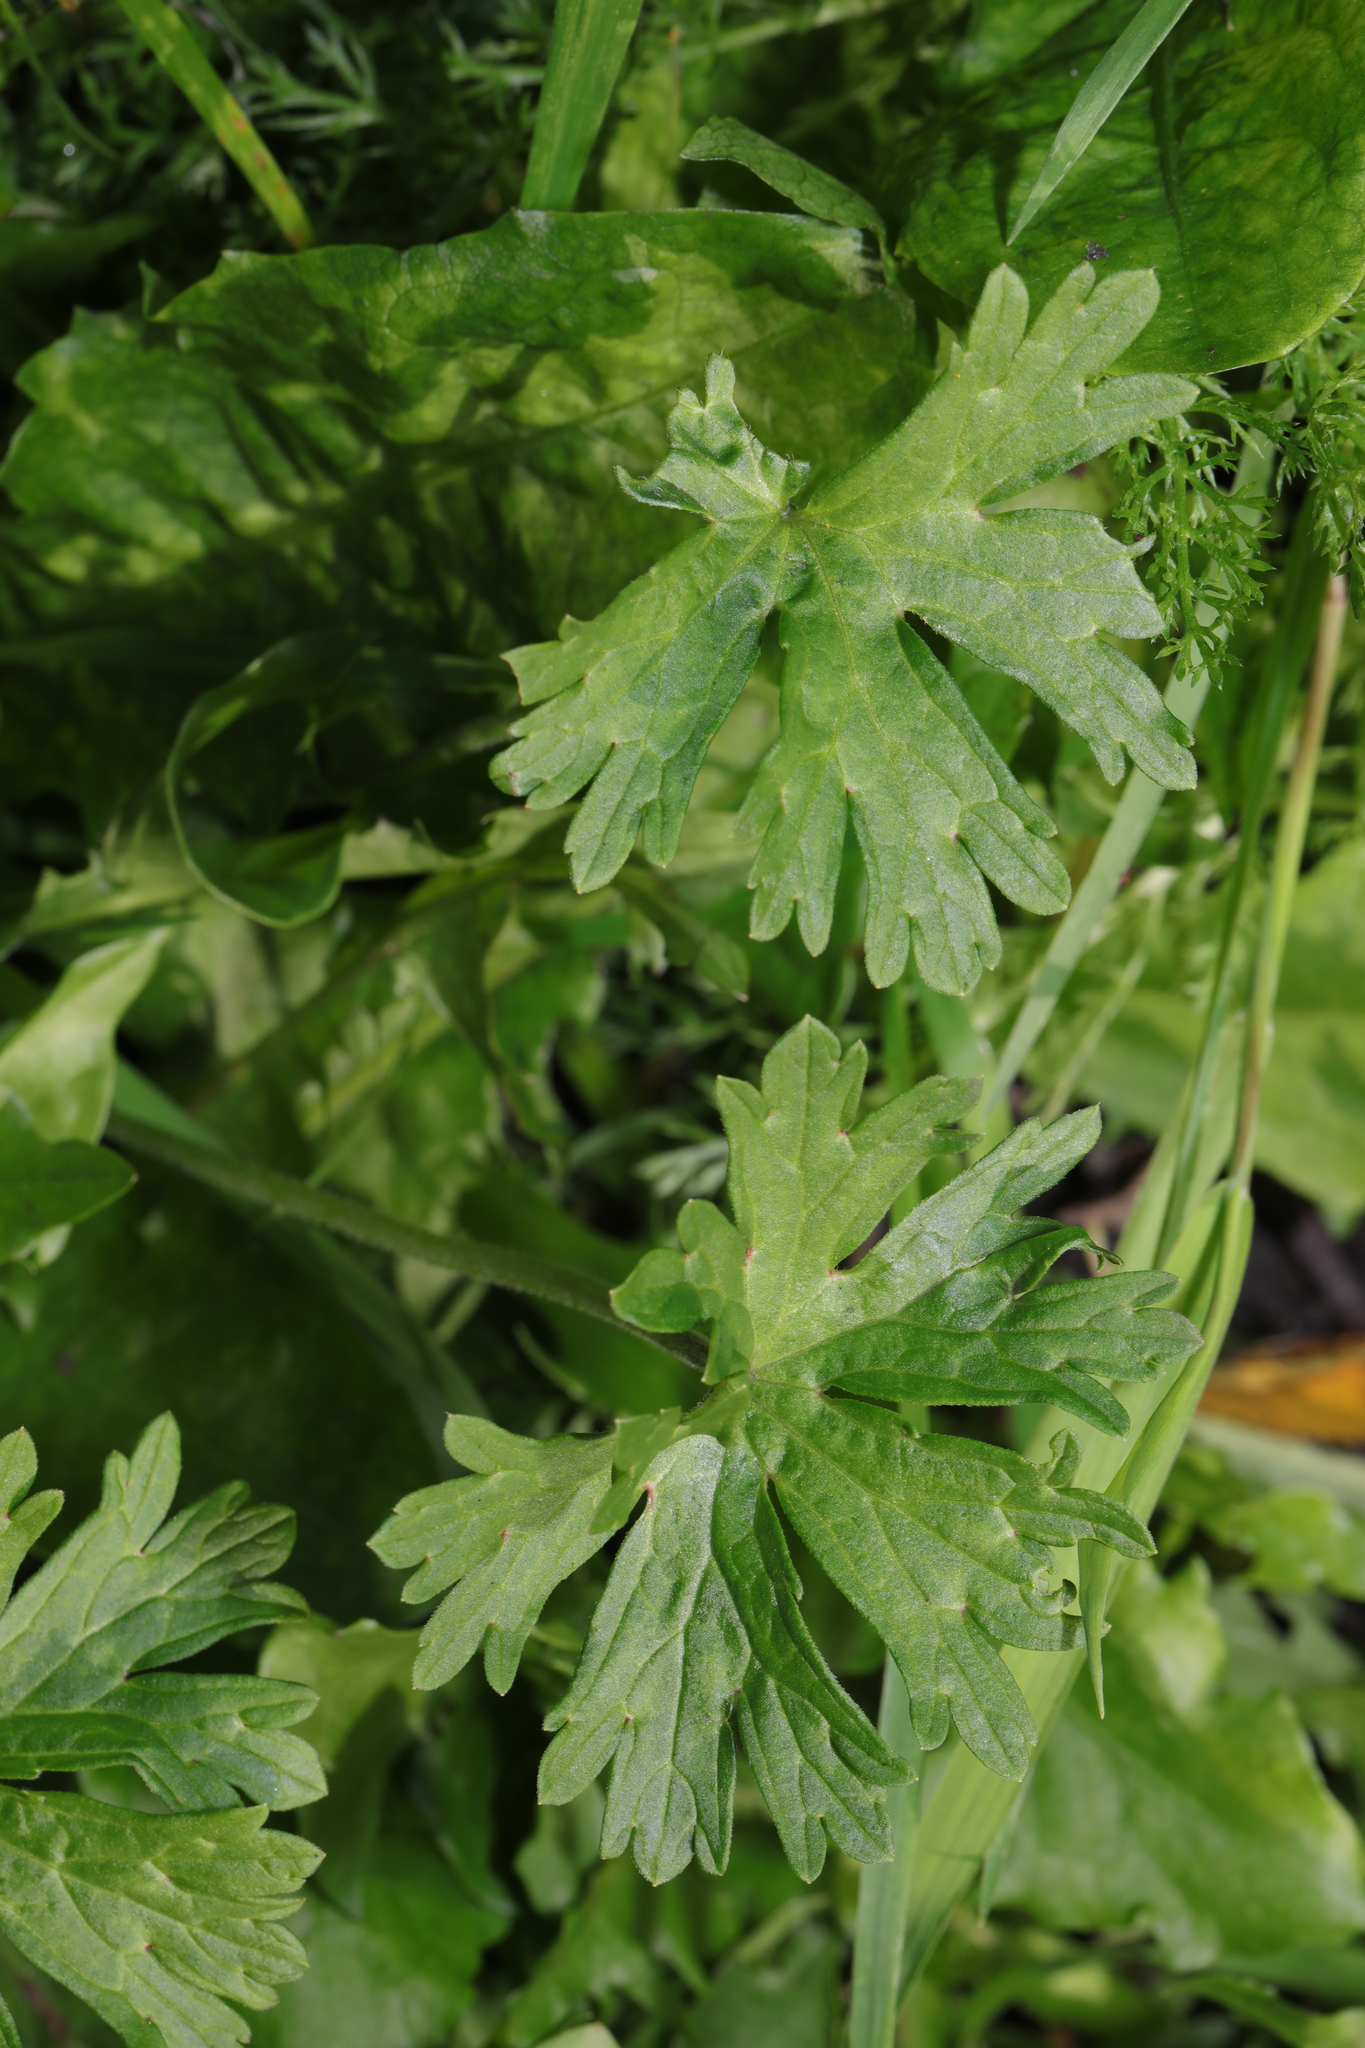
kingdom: Plantae
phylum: Tracheophyta
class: Magnoliopsida
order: Ranunculales
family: Ranunculaceae
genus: Ranunculus
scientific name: Ranunculus repens
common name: Creeping buttercup
